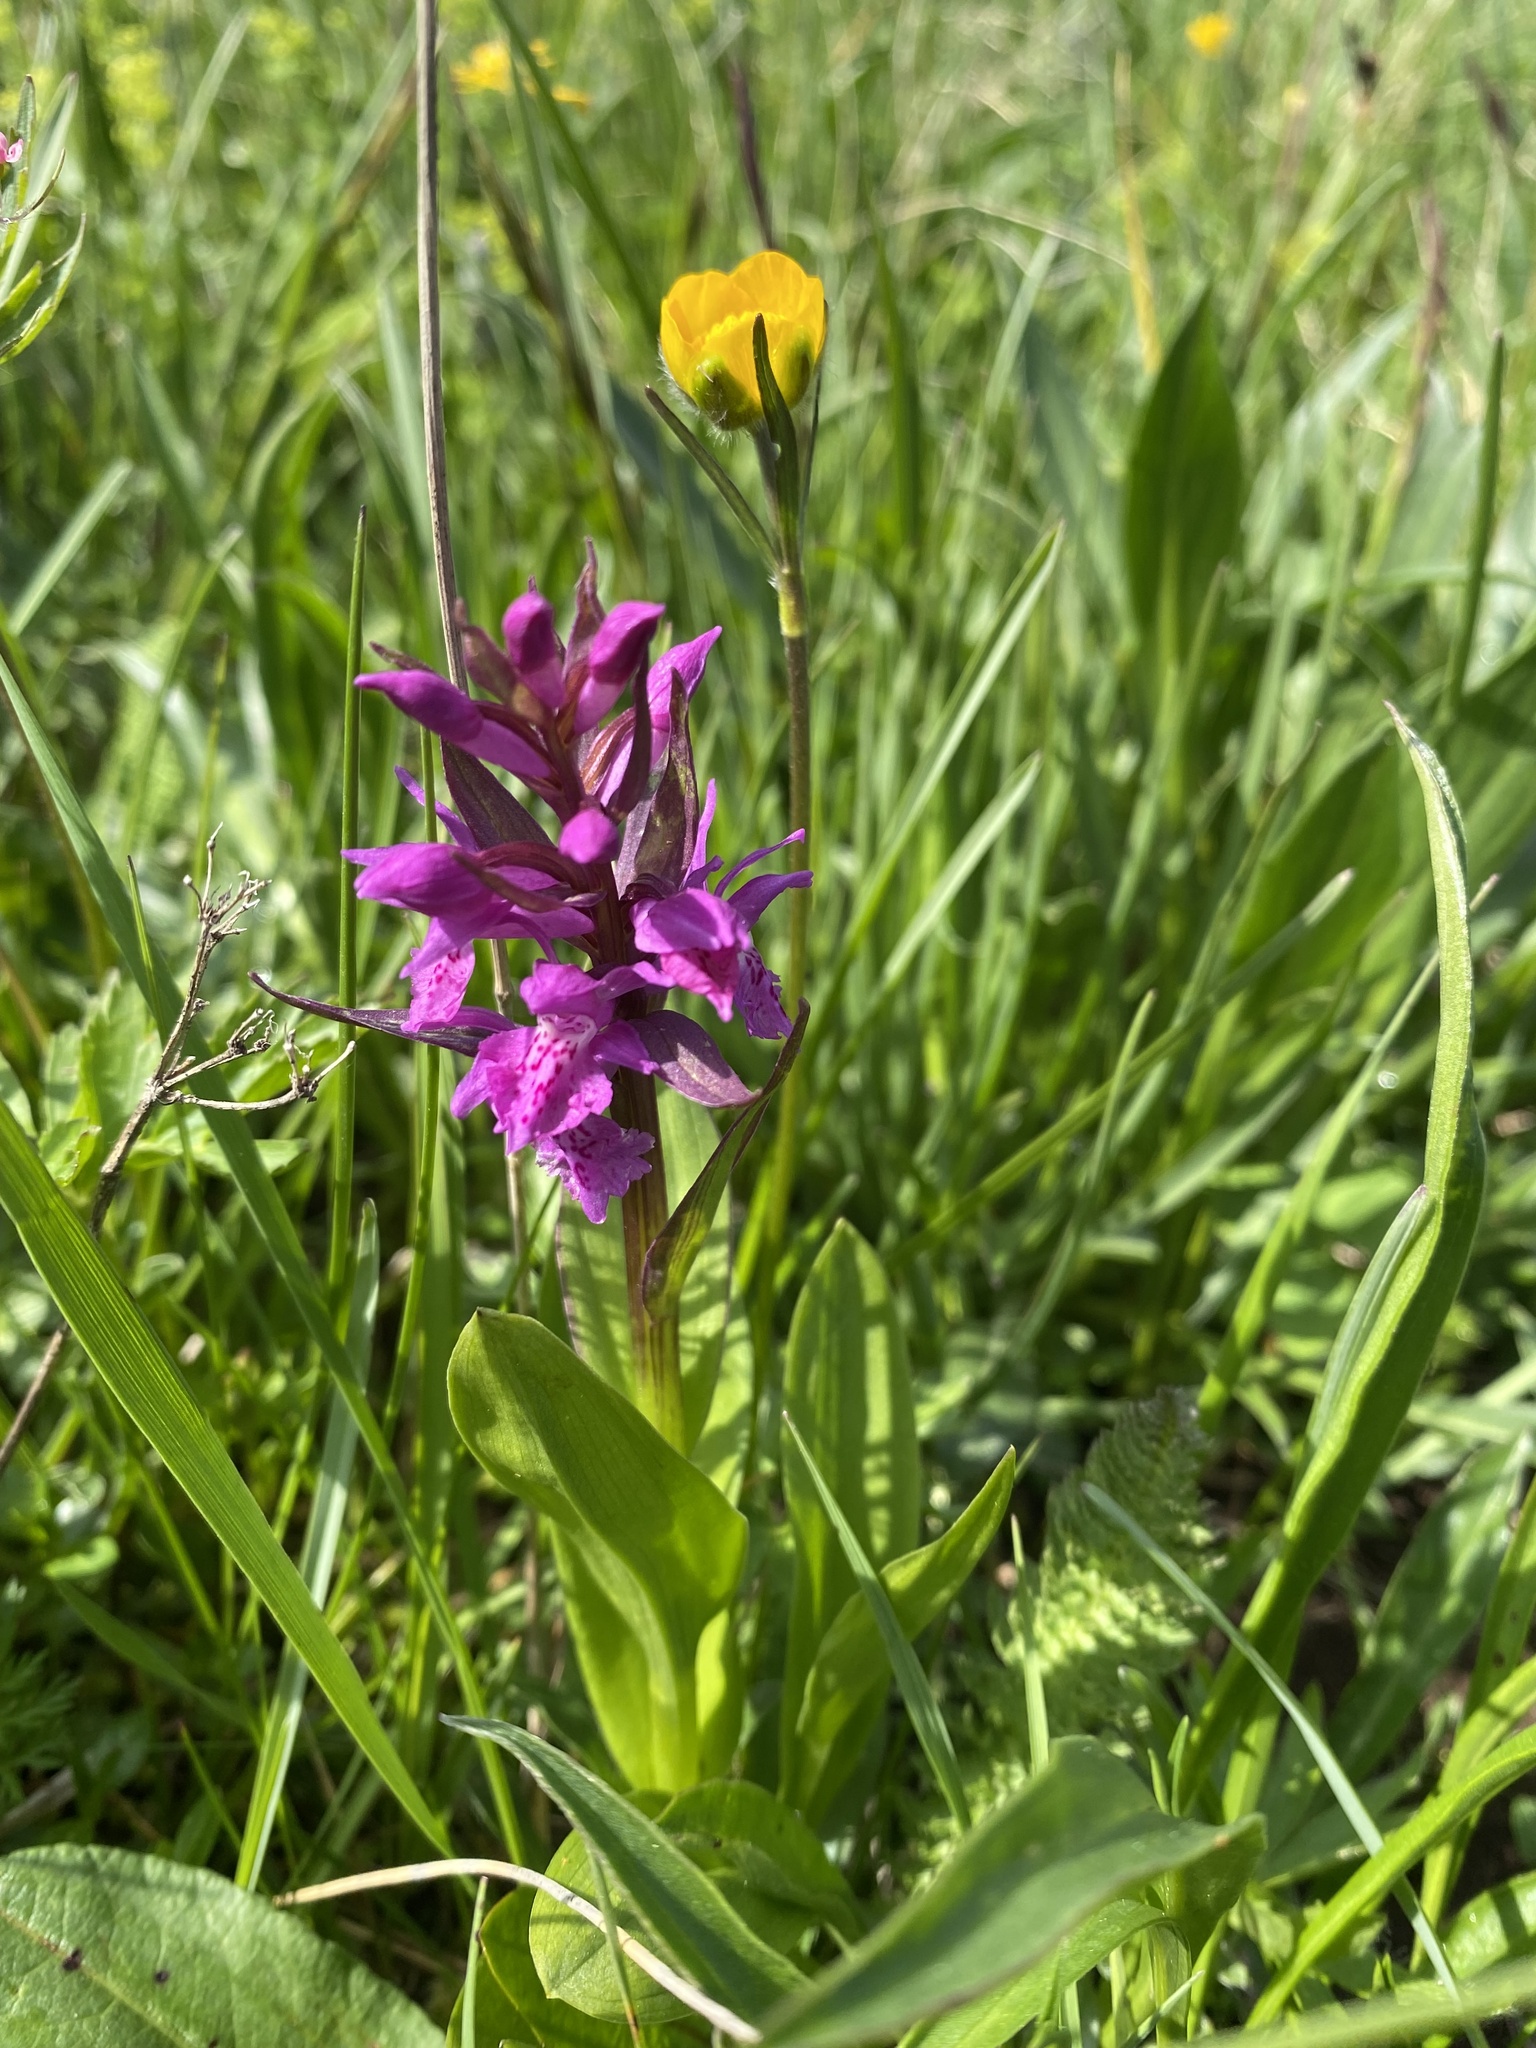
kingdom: Plantae
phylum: Tracheophyta
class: Liliopsida
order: Asparagales
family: Orchidaceae
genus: Dactylorhiza
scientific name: Dactylorhiza euxina
